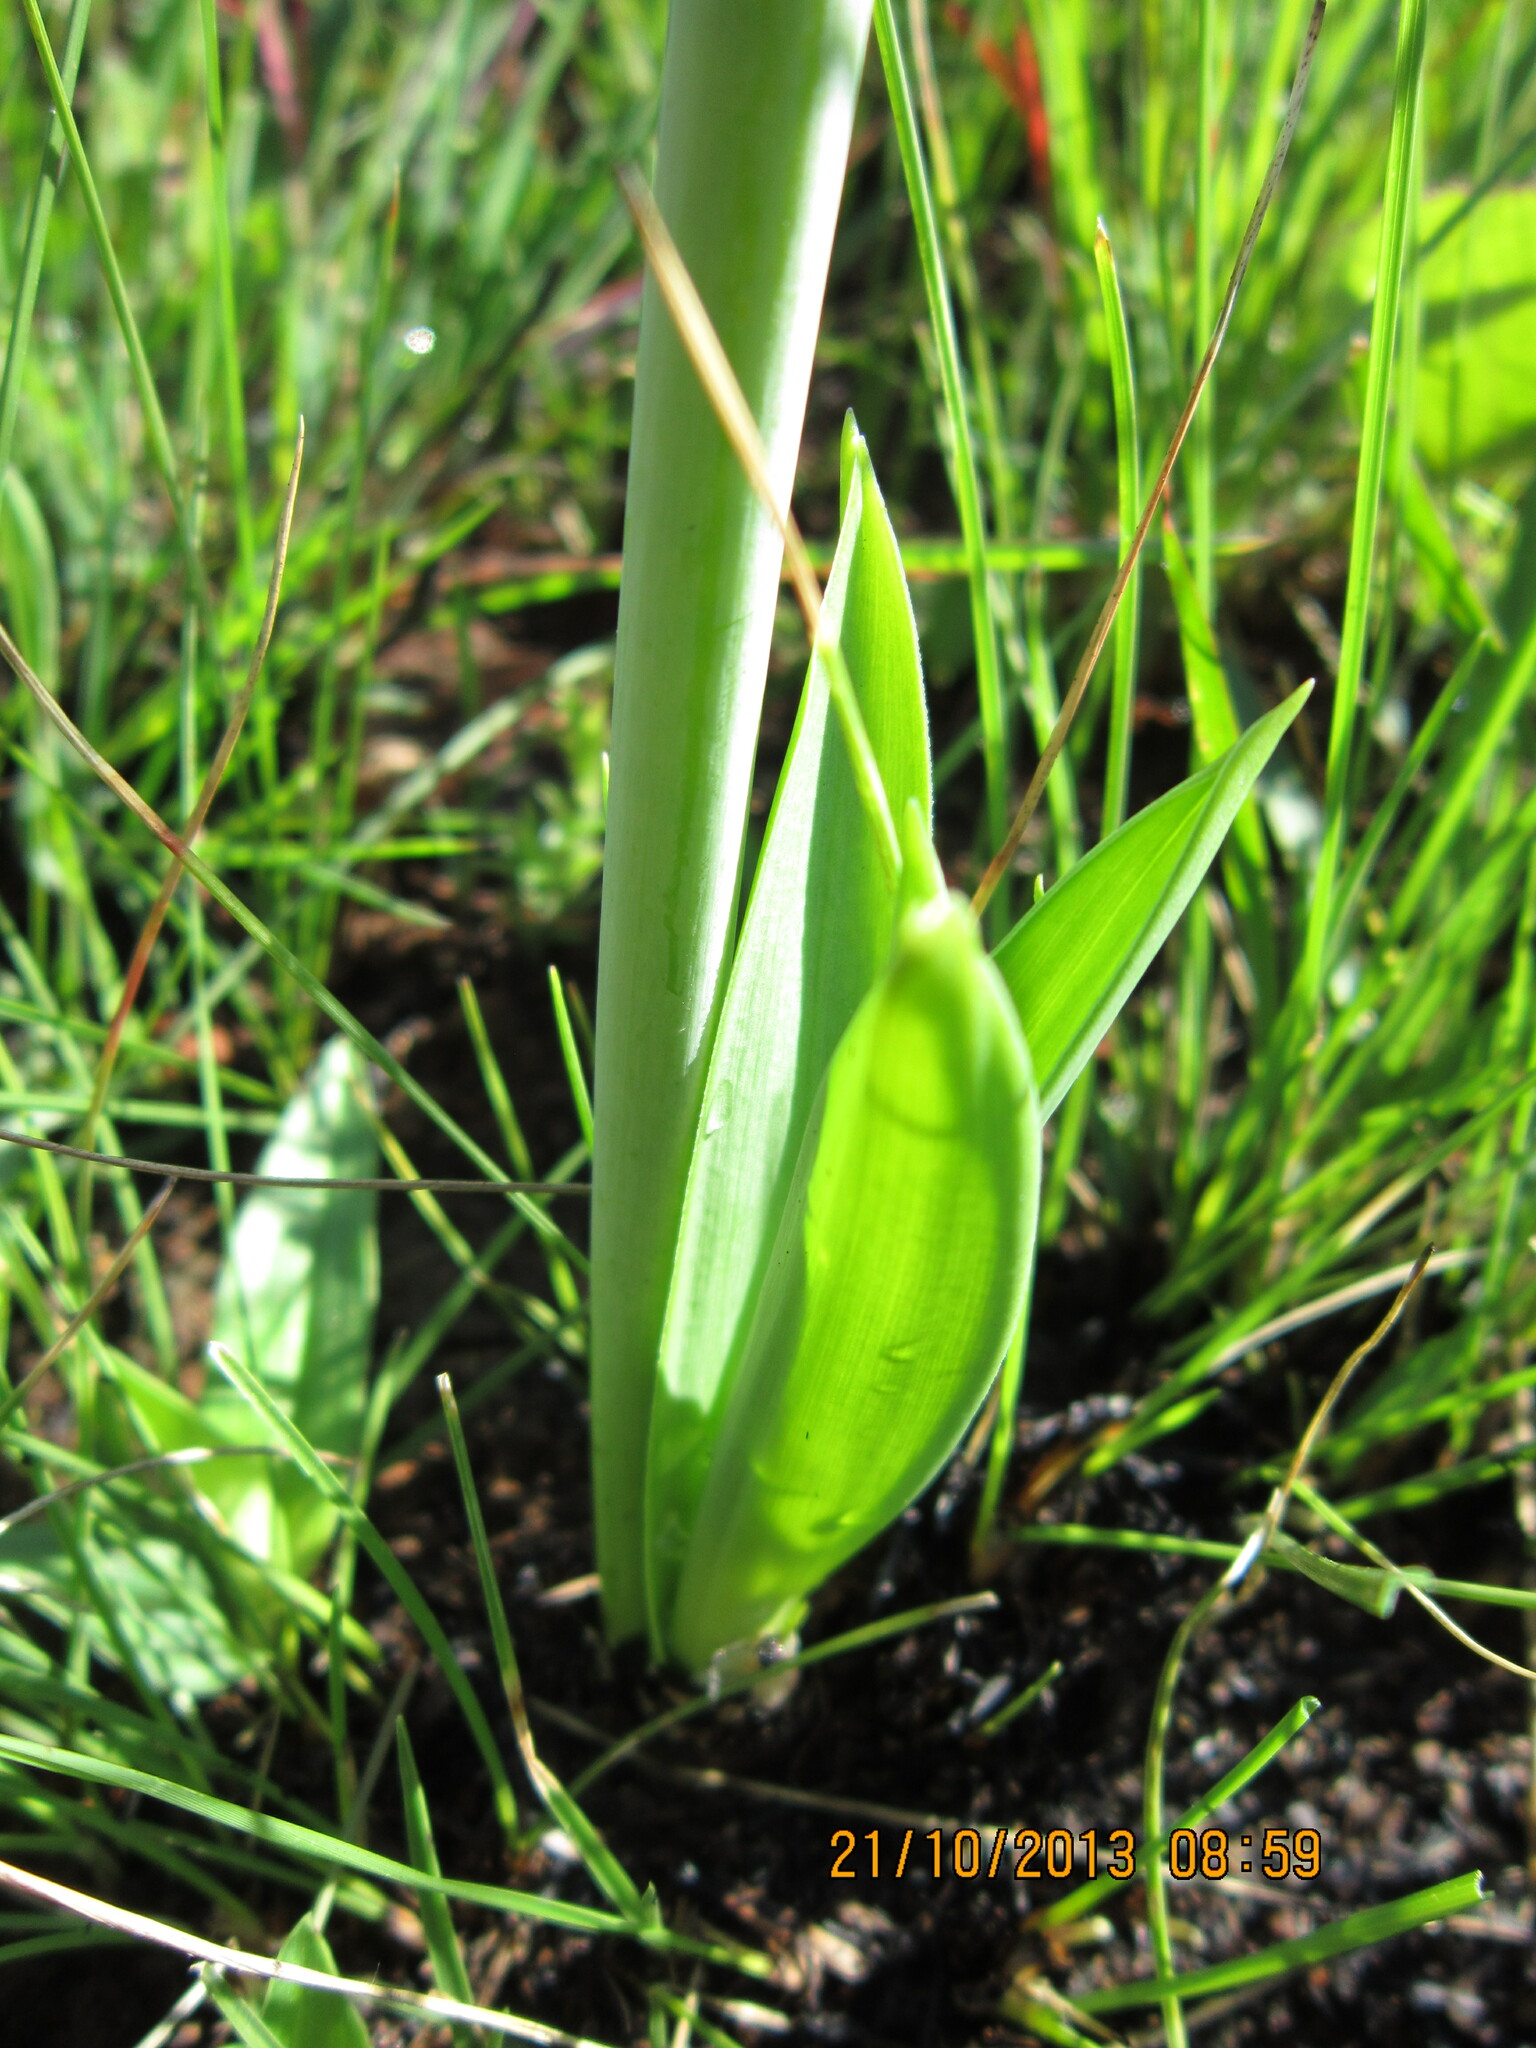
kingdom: Plantae
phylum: Tracheophyta
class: Liliopsida
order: Asparagales
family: Asparagaceae
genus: Drimia
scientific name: Drimia altissima
